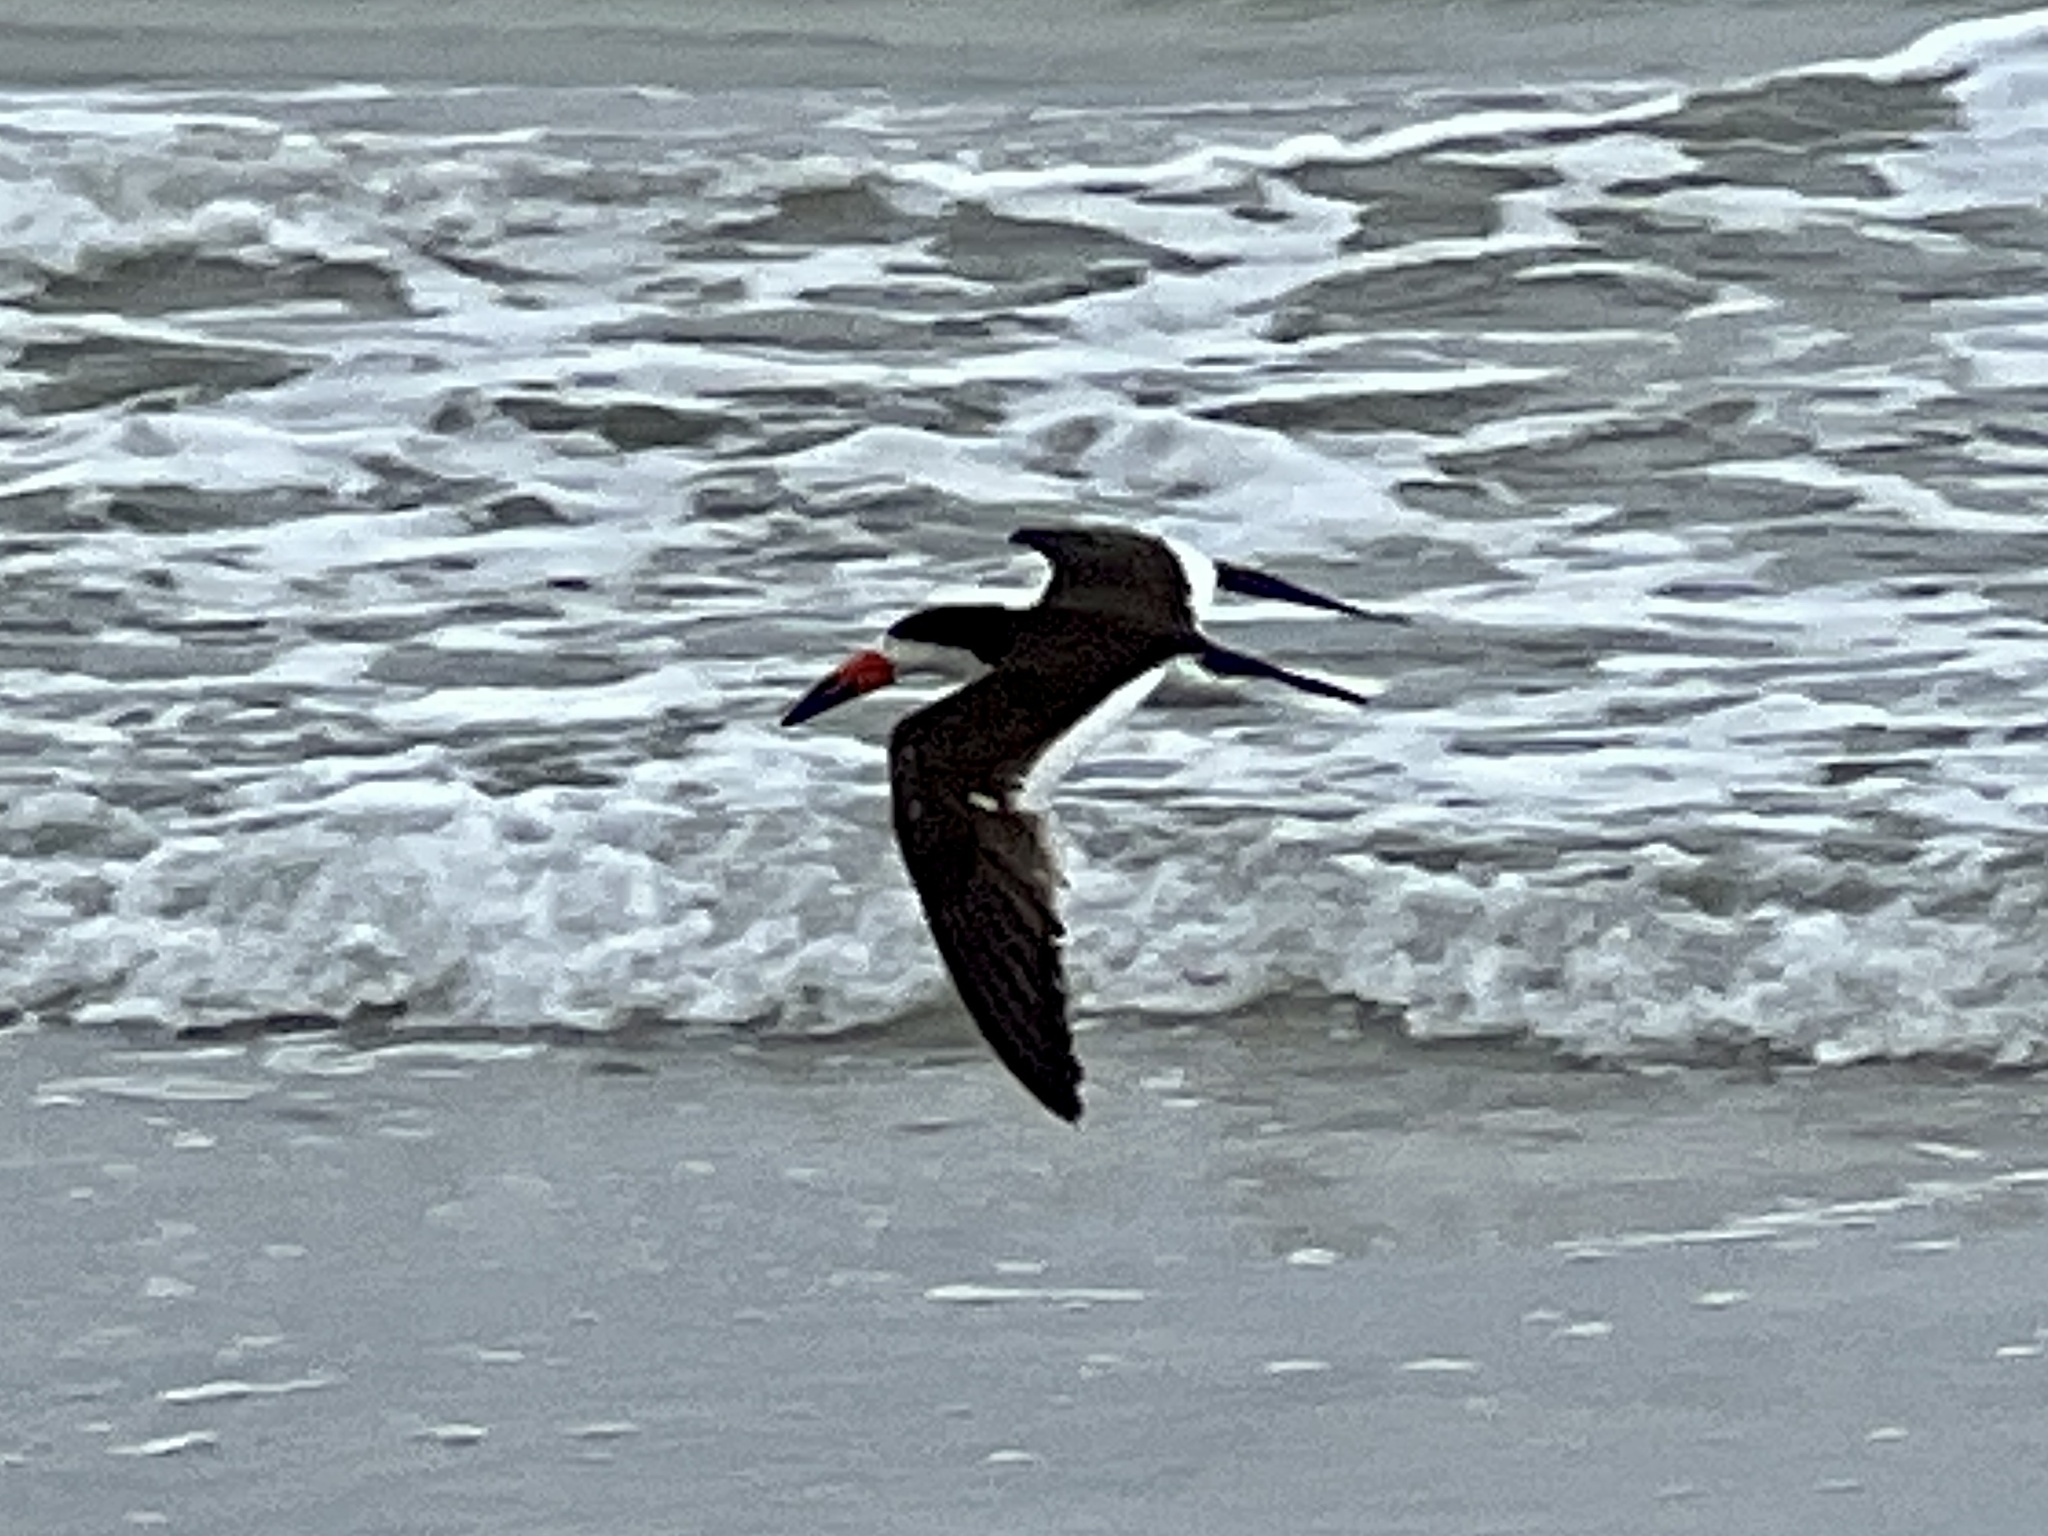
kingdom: Animalia
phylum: Chordata
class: Aves
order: Charadriiformes
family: Laridae
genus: Rynchops
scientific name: Rynchops niger
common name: Black skimmer
